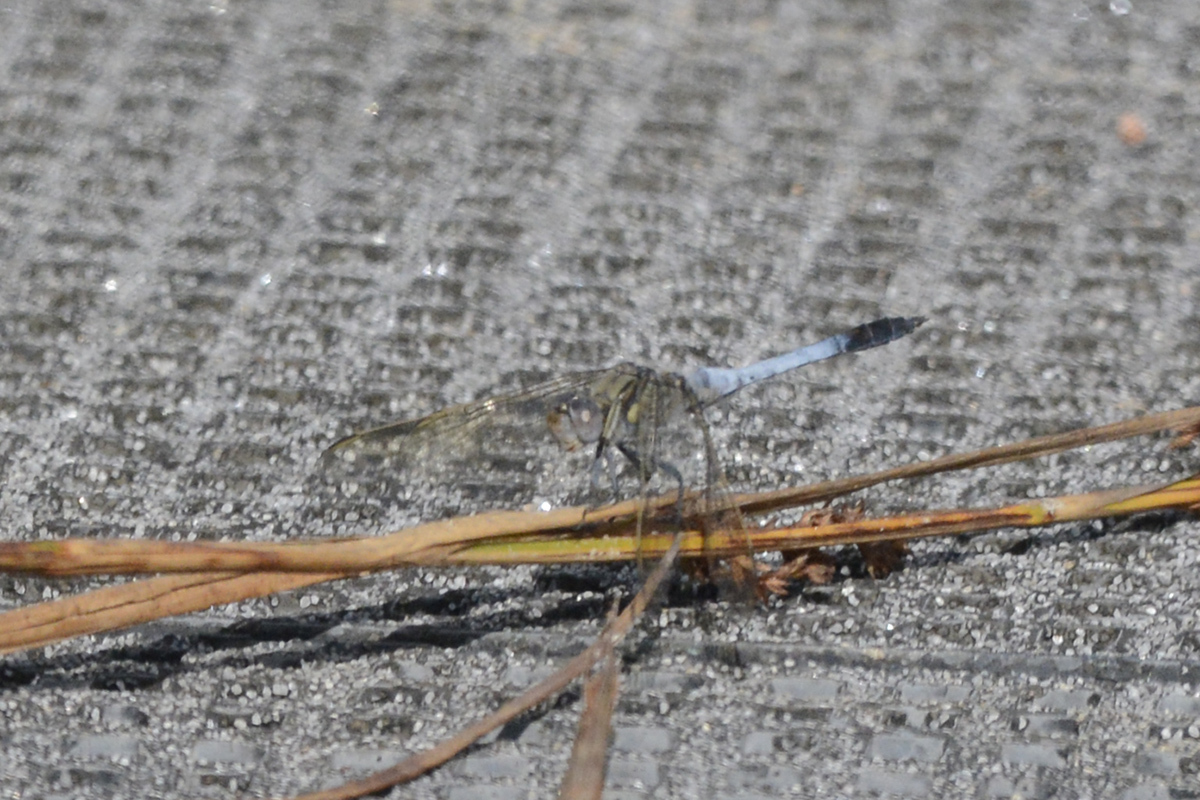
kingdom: Animalia
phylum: Arthropoda
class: Insecta
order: Odonata
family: Libellulidae
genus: Orthetrum
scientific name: Orthetrum caledonicum
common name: Blue skimmer
